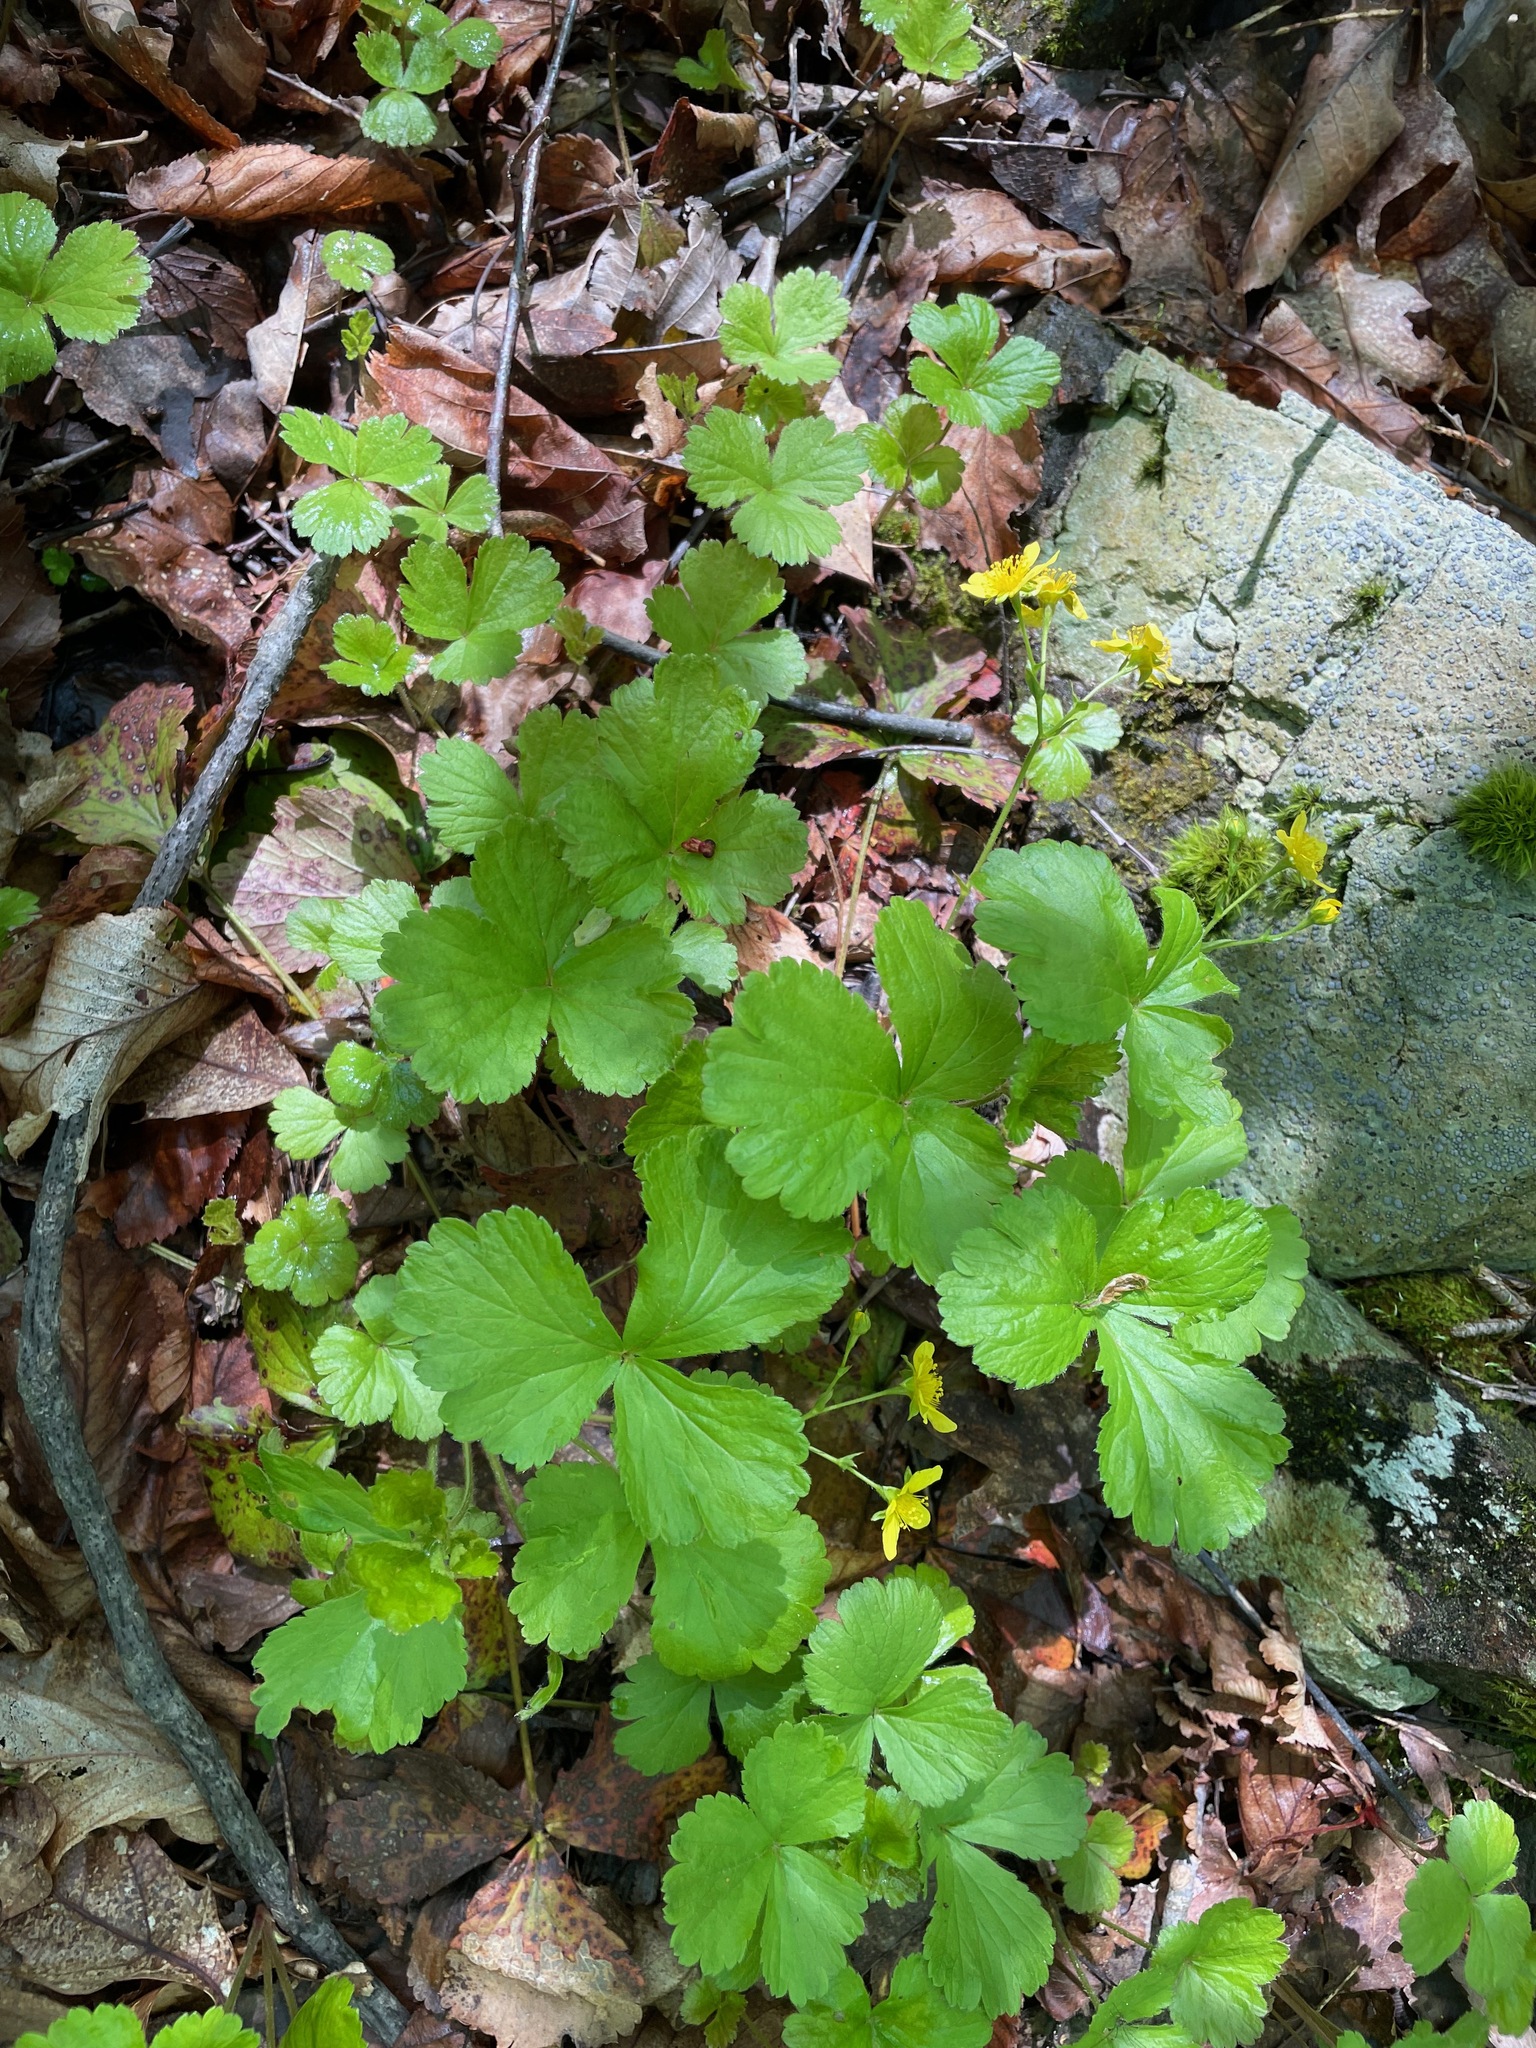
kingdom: Plantae
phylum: Tracheophyta
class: Magnoliopsida
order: Rosales
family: Rosaceae
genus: Geum
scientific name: Geum fragarioides
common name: Appalachian barren strawberry
